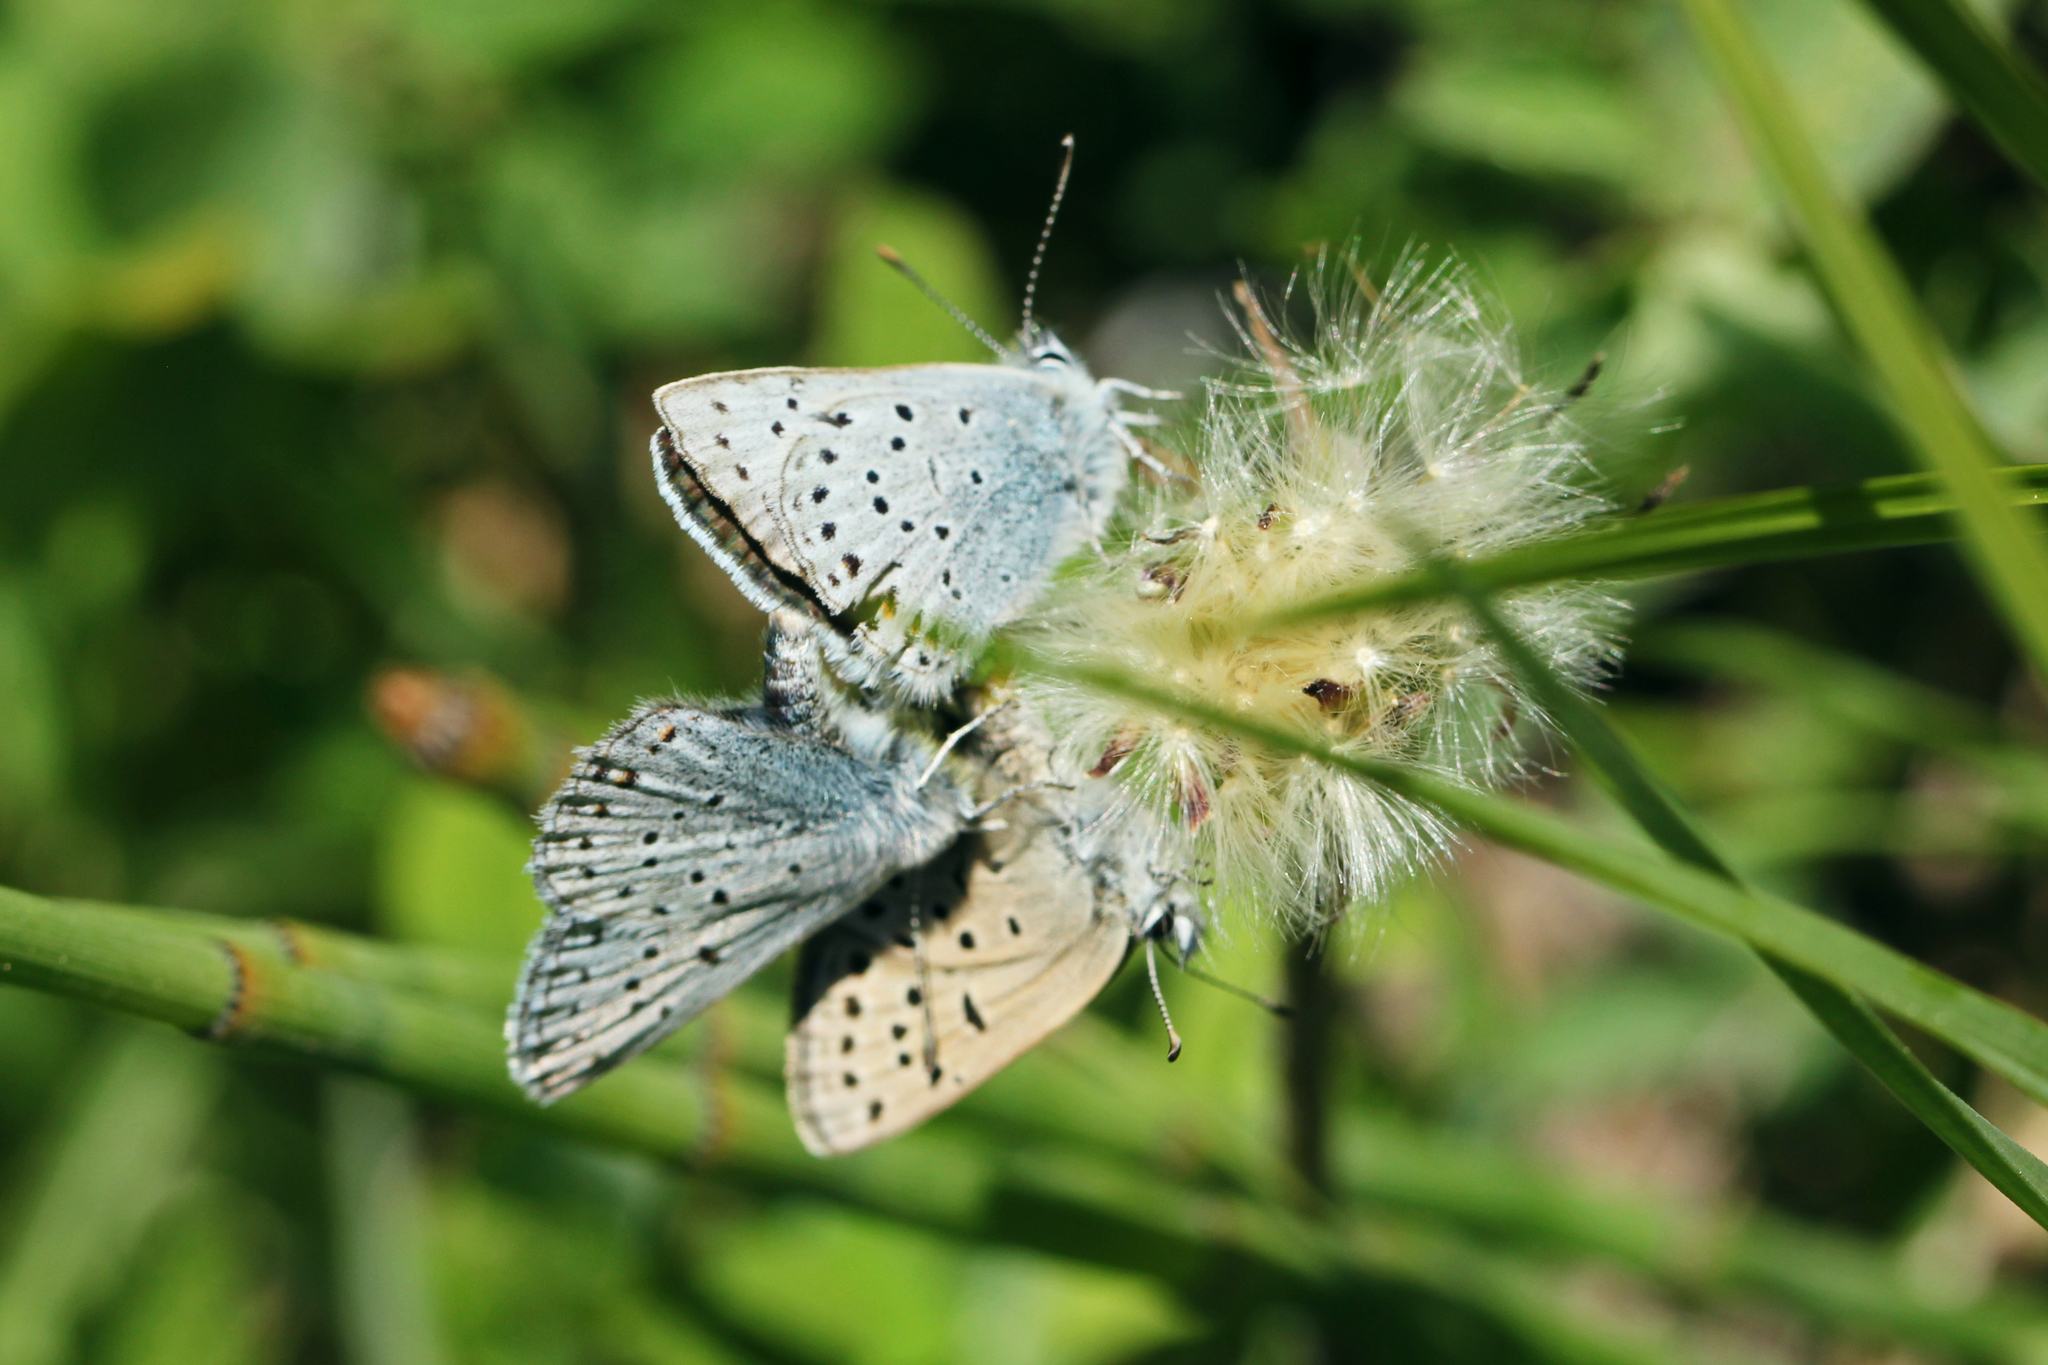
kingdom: Animalia
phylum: Arthropoda
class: Insecta
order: Lepidoptera
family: Lycaenidae
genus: Icaricia
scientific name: Icaricia saepiolus
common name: Greenish blue
